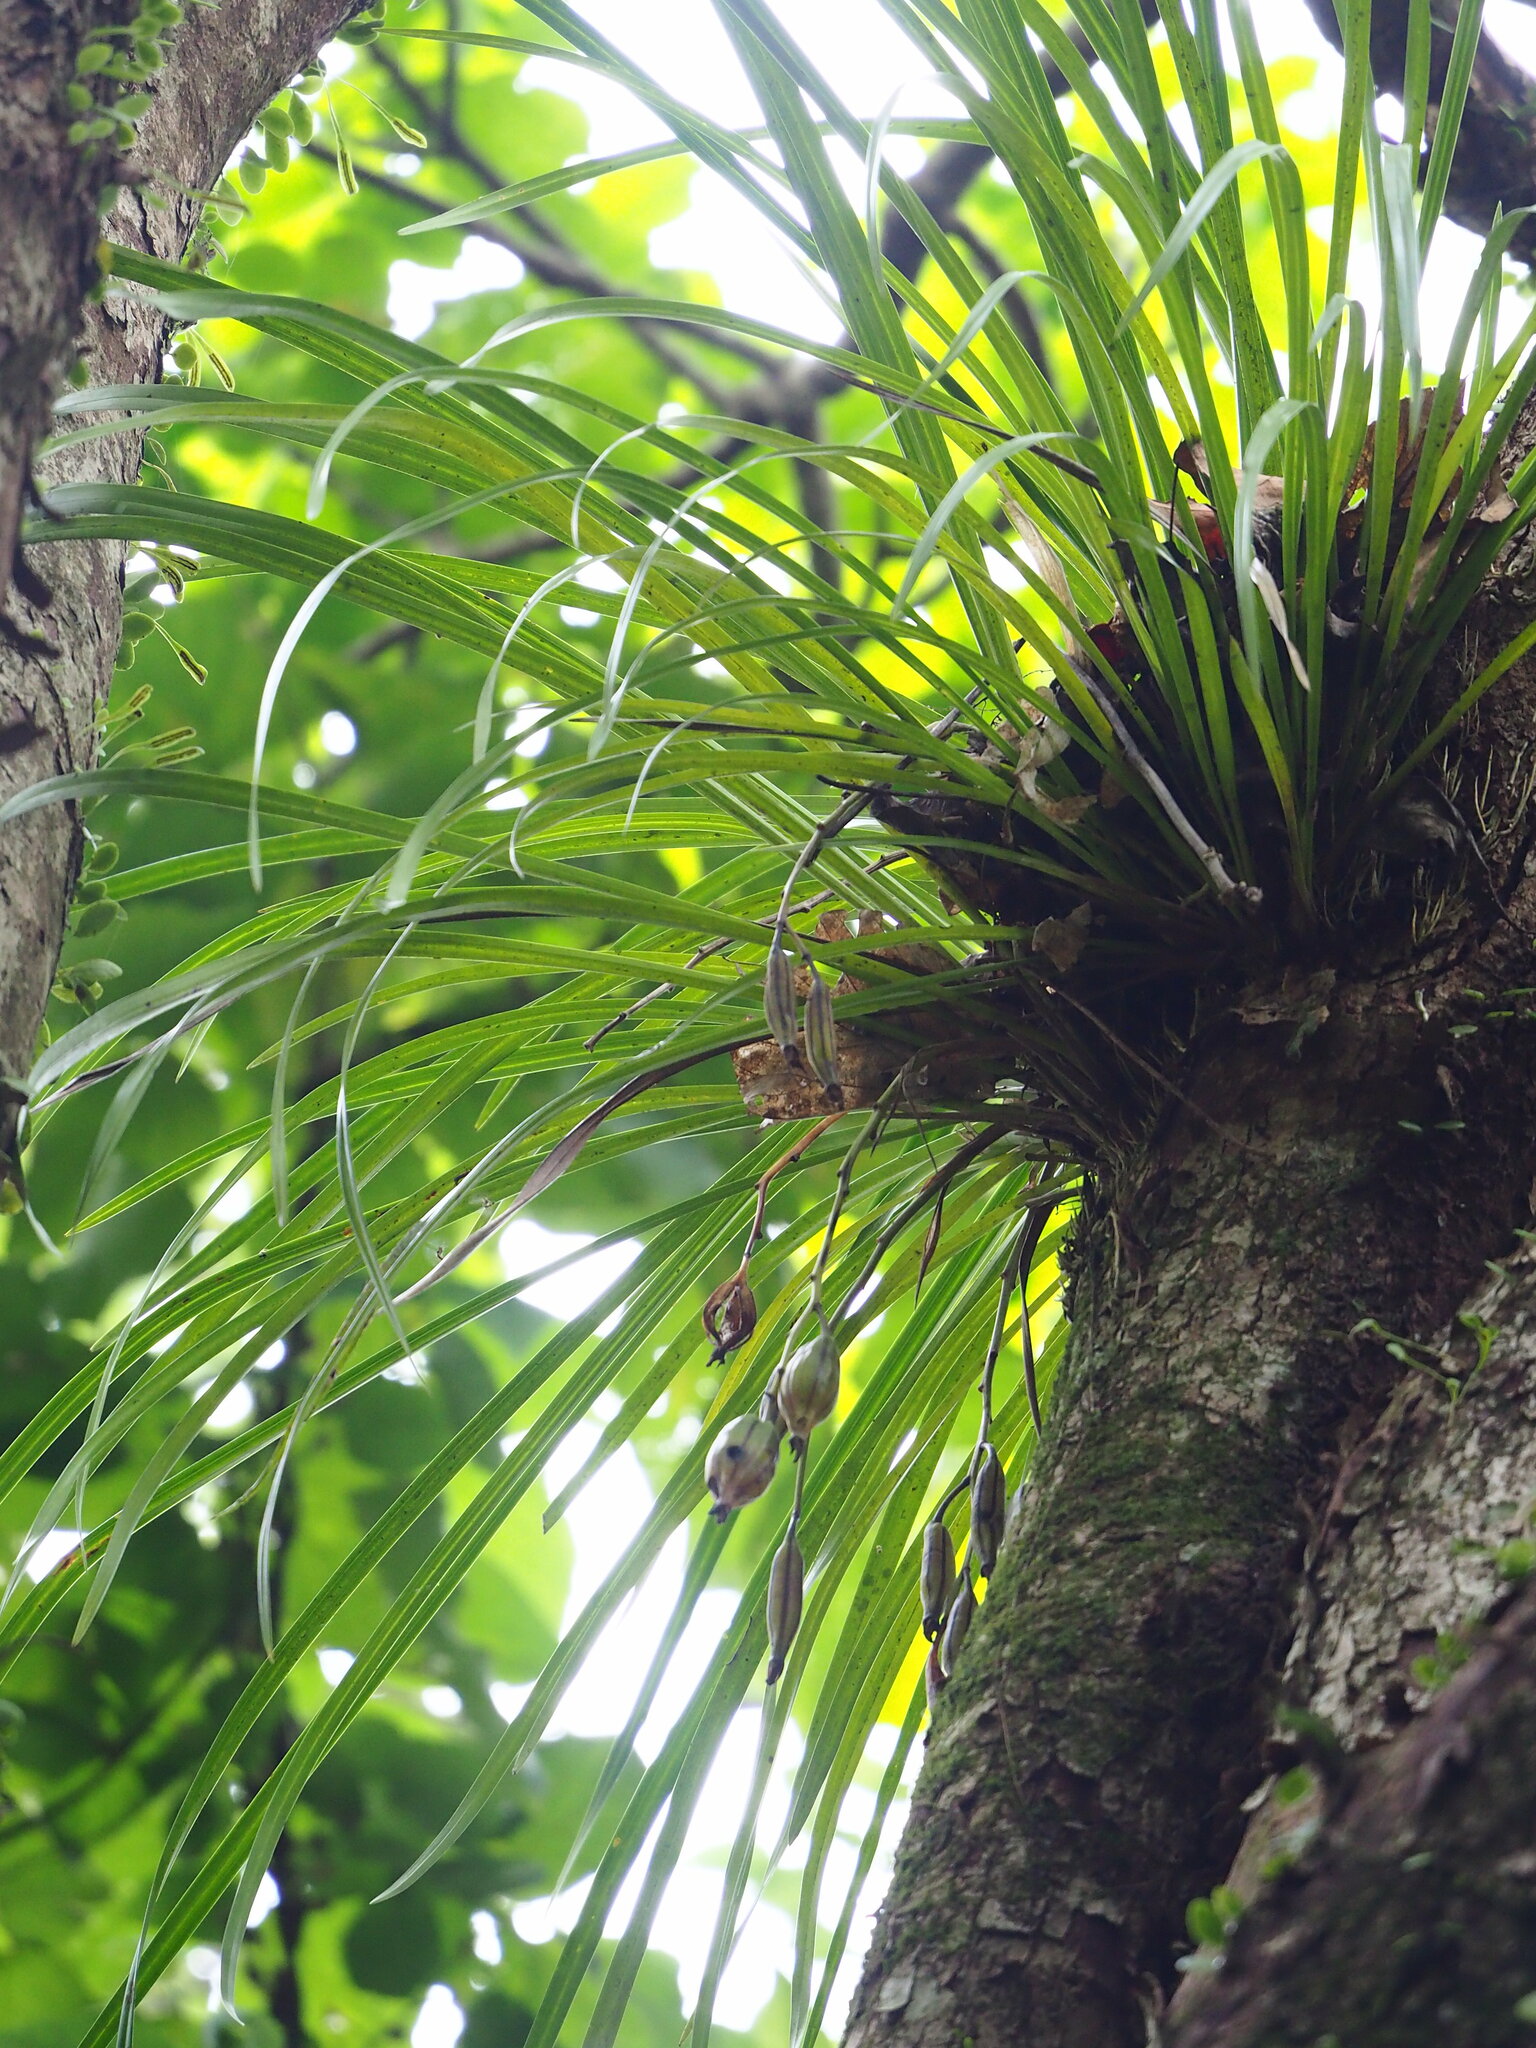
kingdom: Plantae
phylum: Tracheophyta
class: Liliopsida
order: Asparagales
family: Orchidaceae
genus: Cymbidium
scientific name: Cymbidium dayanum
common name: Orchid
